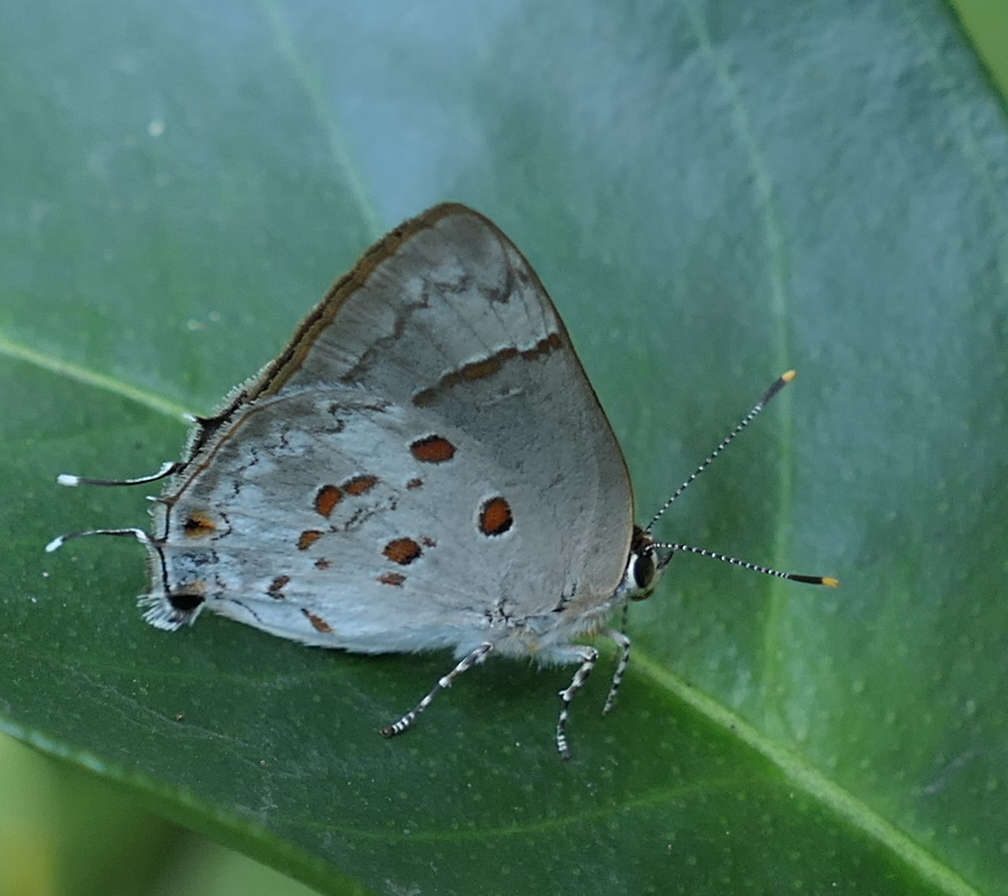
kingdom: Animalia
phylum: Arthropoda
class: Insecta
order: Lepidoptera
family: Lycaenidae
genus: Tmolus
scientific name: Tmolus echion
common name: Red-spotted hairstreak
